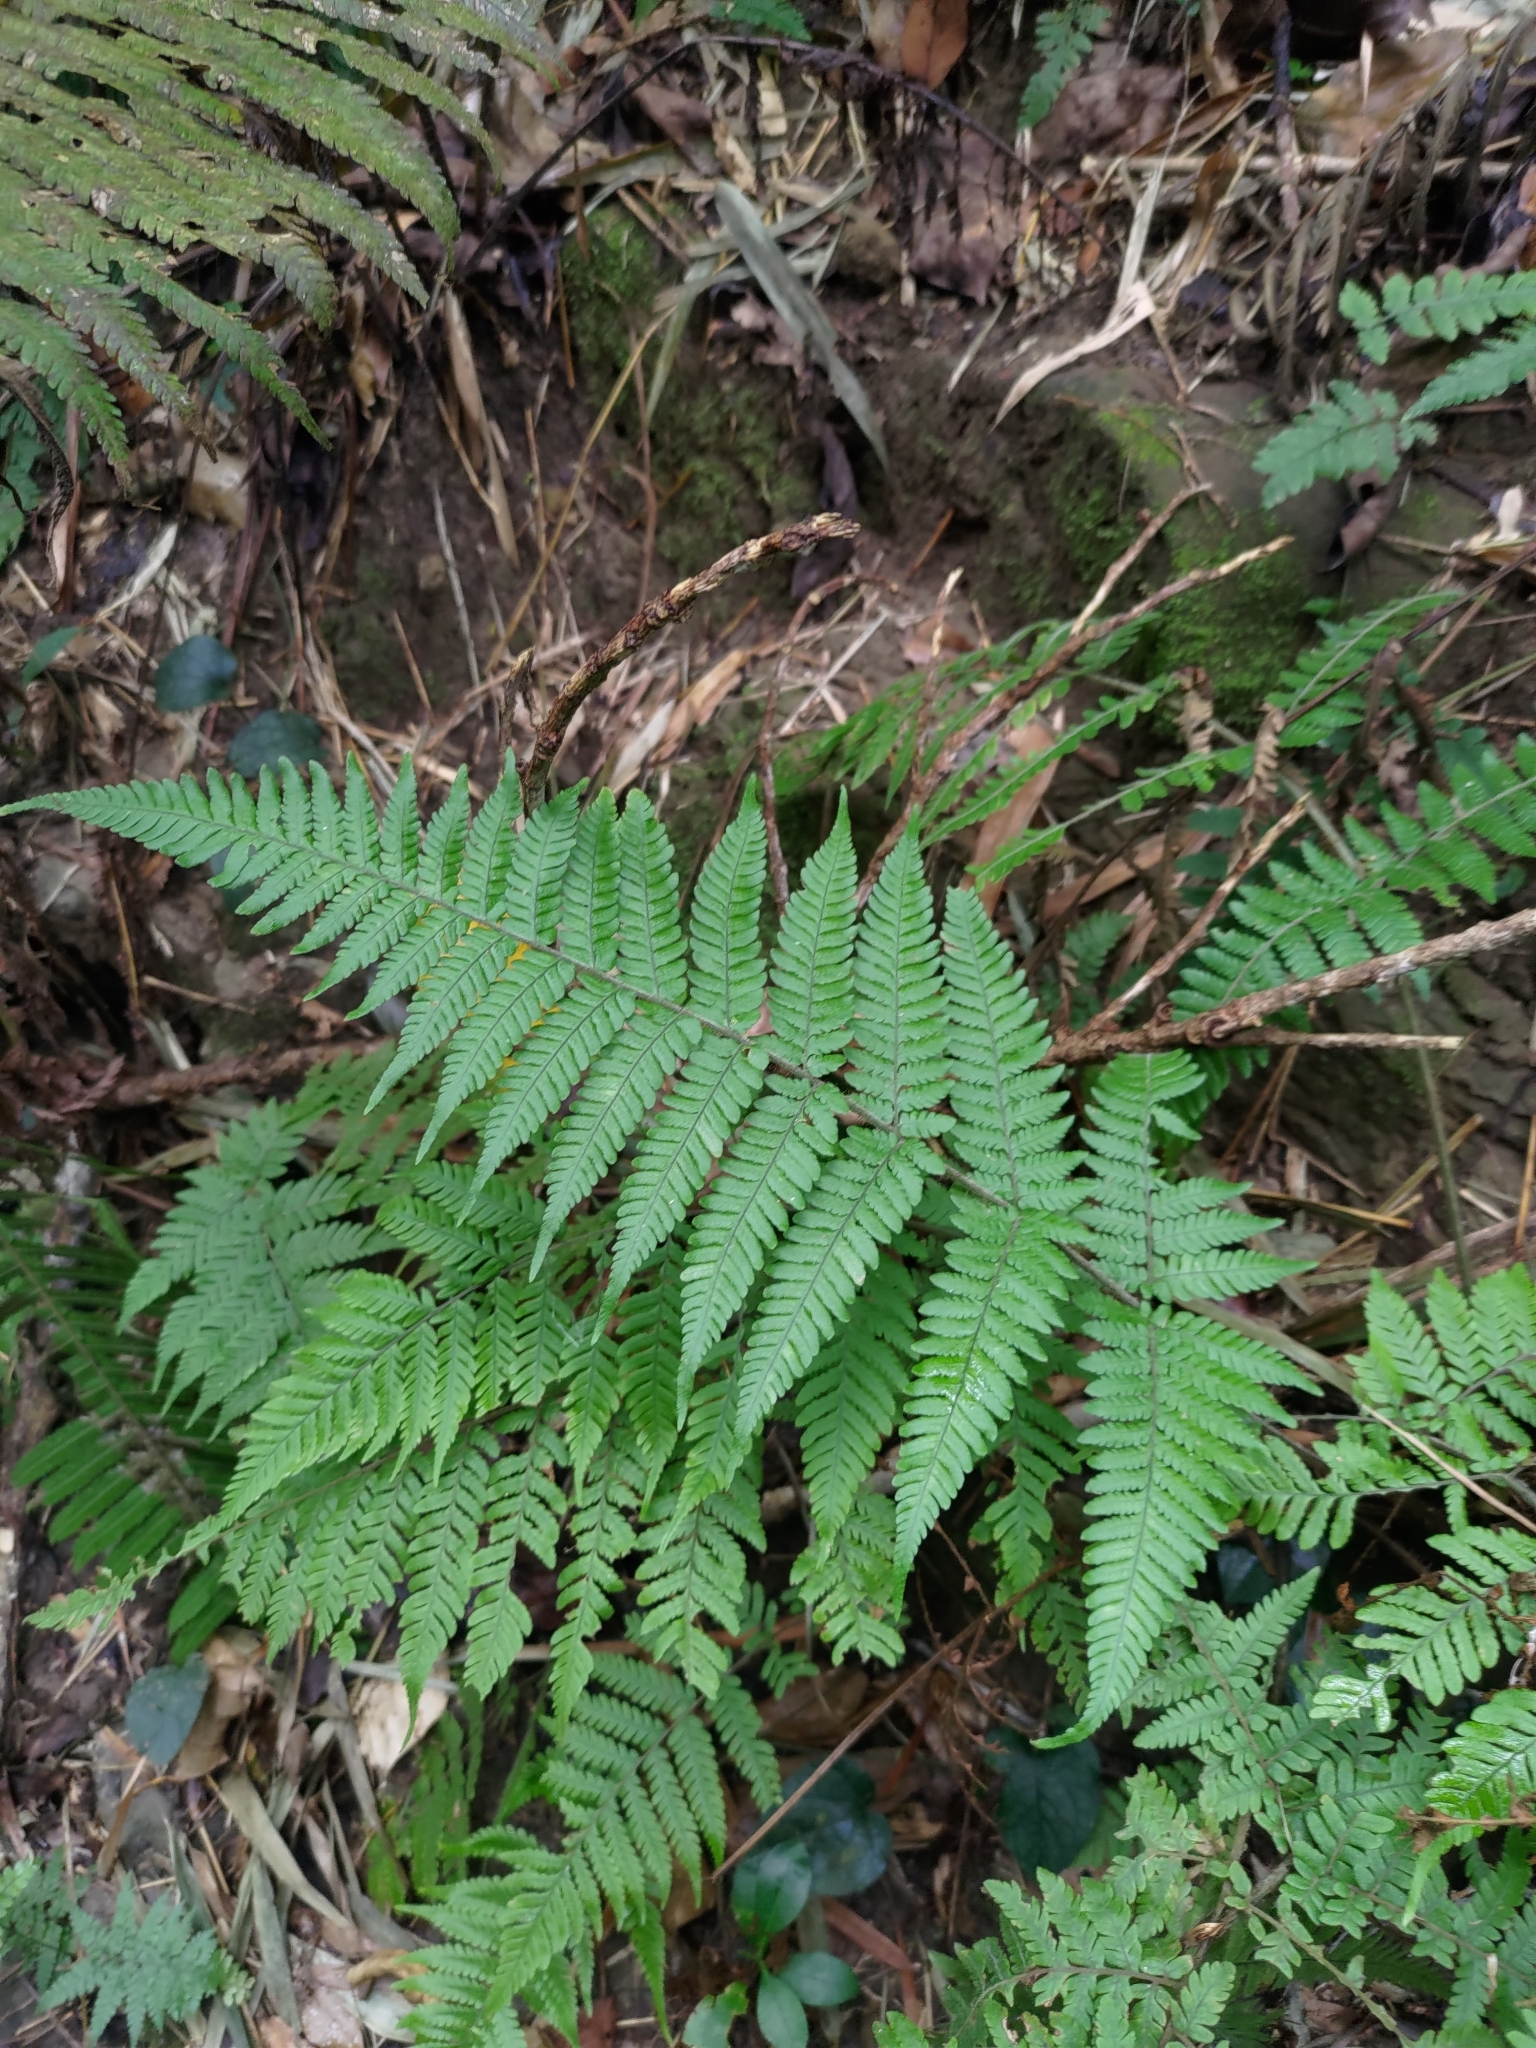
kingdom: Plantae
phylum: Tracheophyta
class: Polypodiopsida
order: Polypodiales
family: Dryopteridaceae
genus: Ctenitis
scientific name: Ctenitis eatonii
